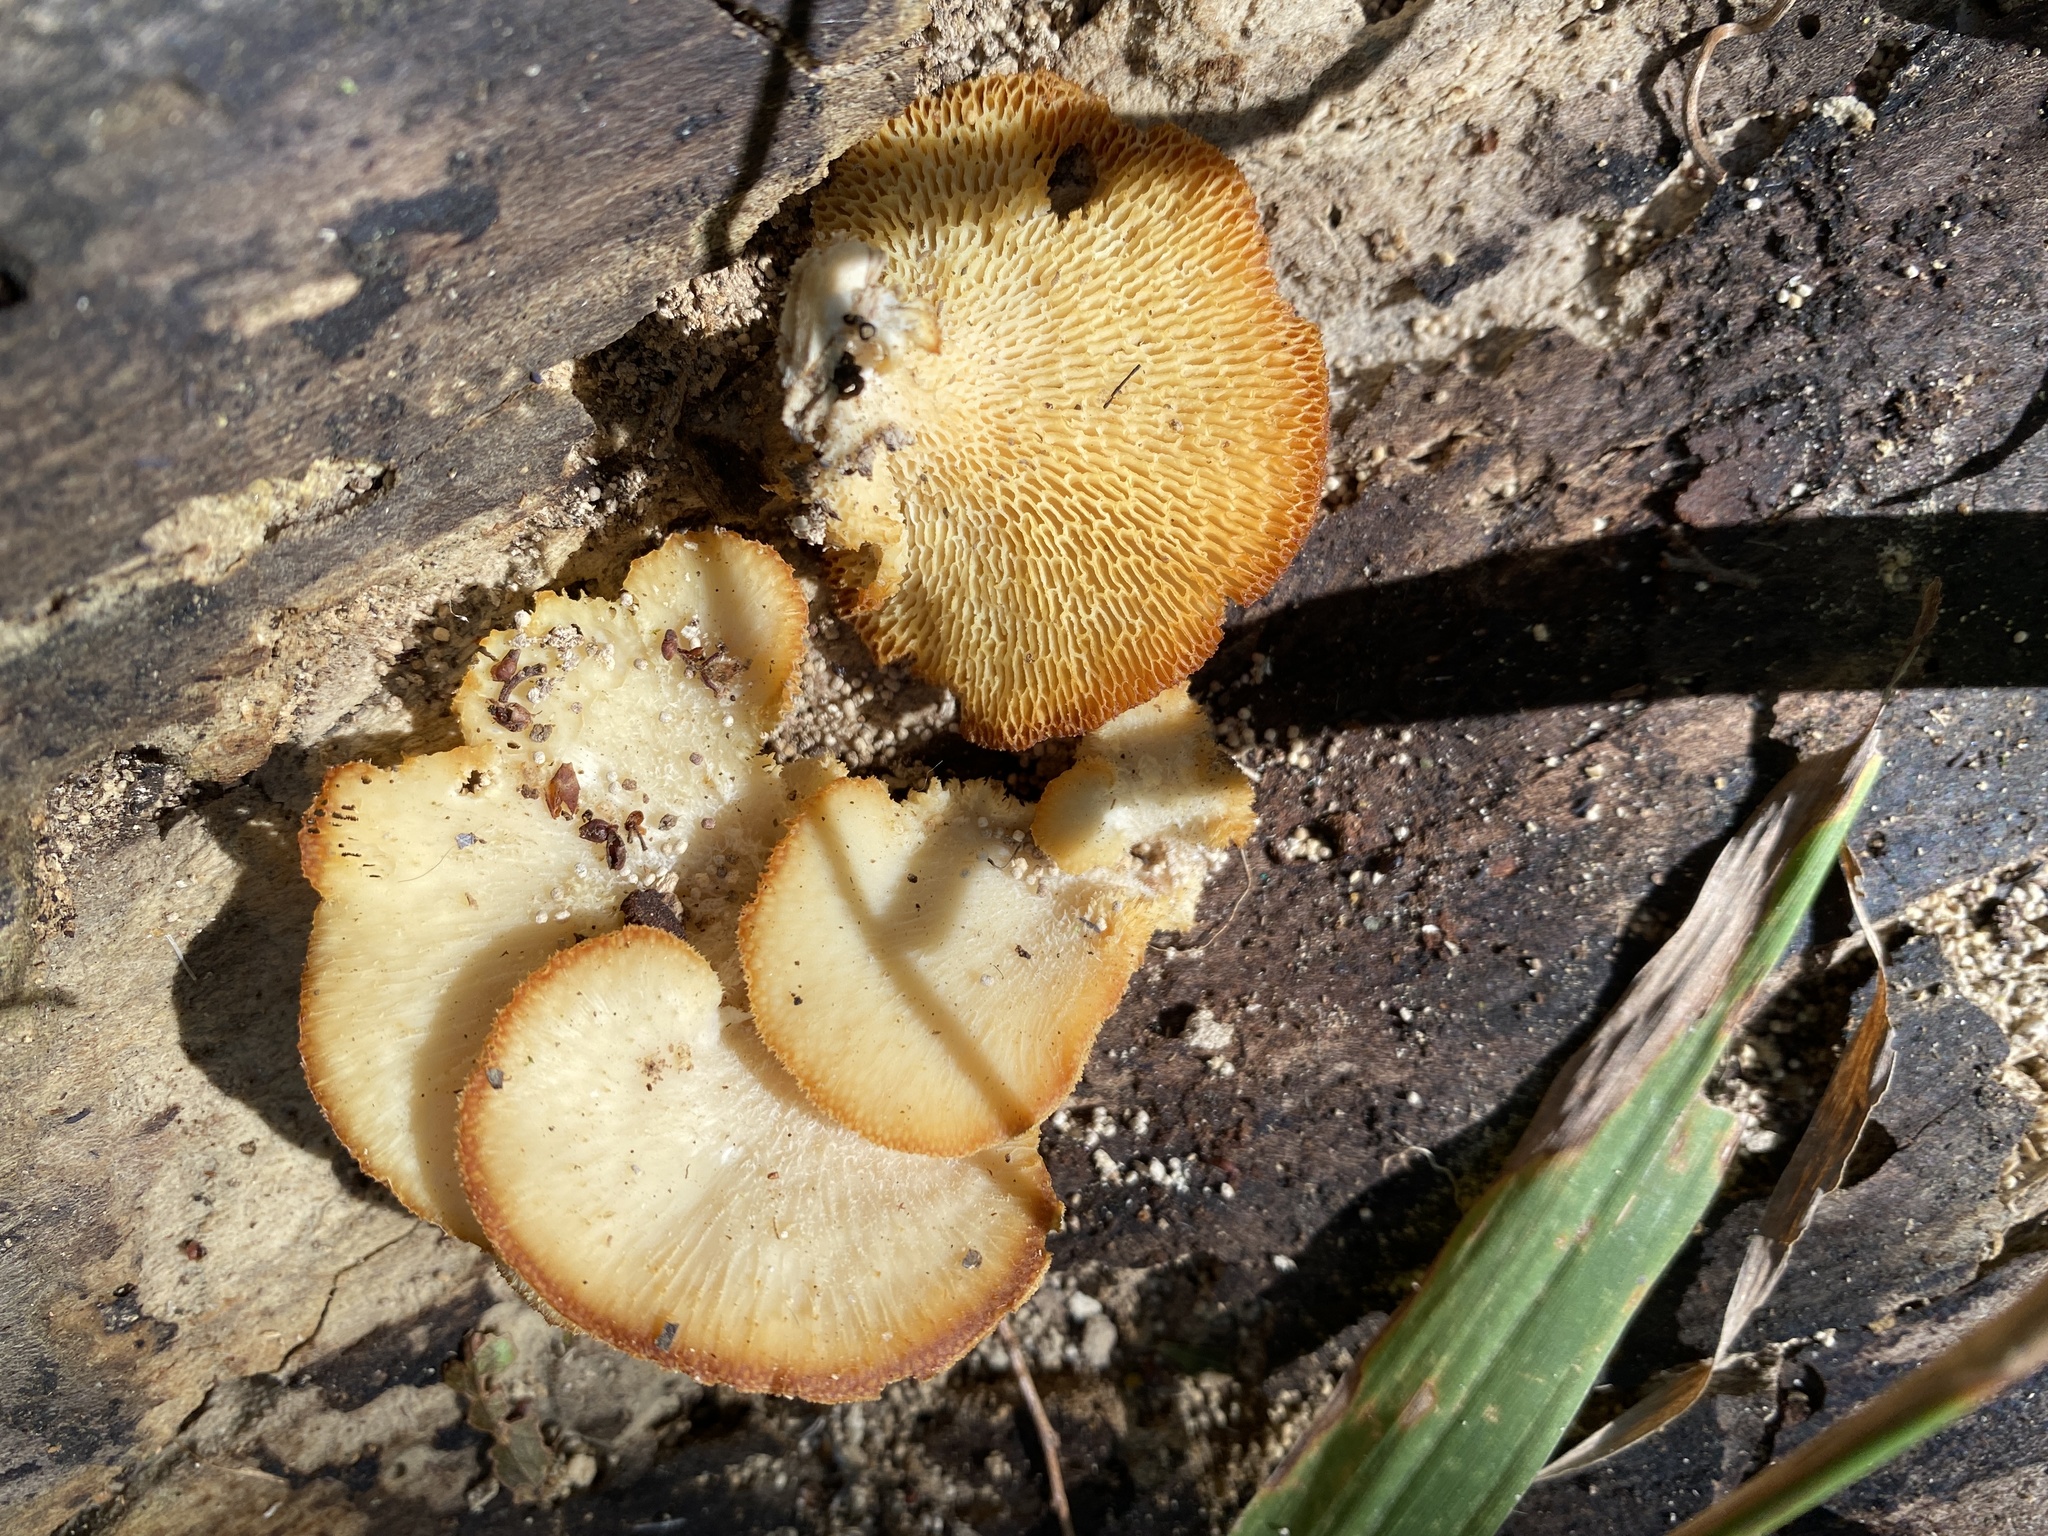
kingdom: Fungi
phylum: Basidiomycota
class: Agaricomycetes
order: Polyporales
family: Polyporaceae
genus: Favolus
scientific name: Favolus tenuiculus
